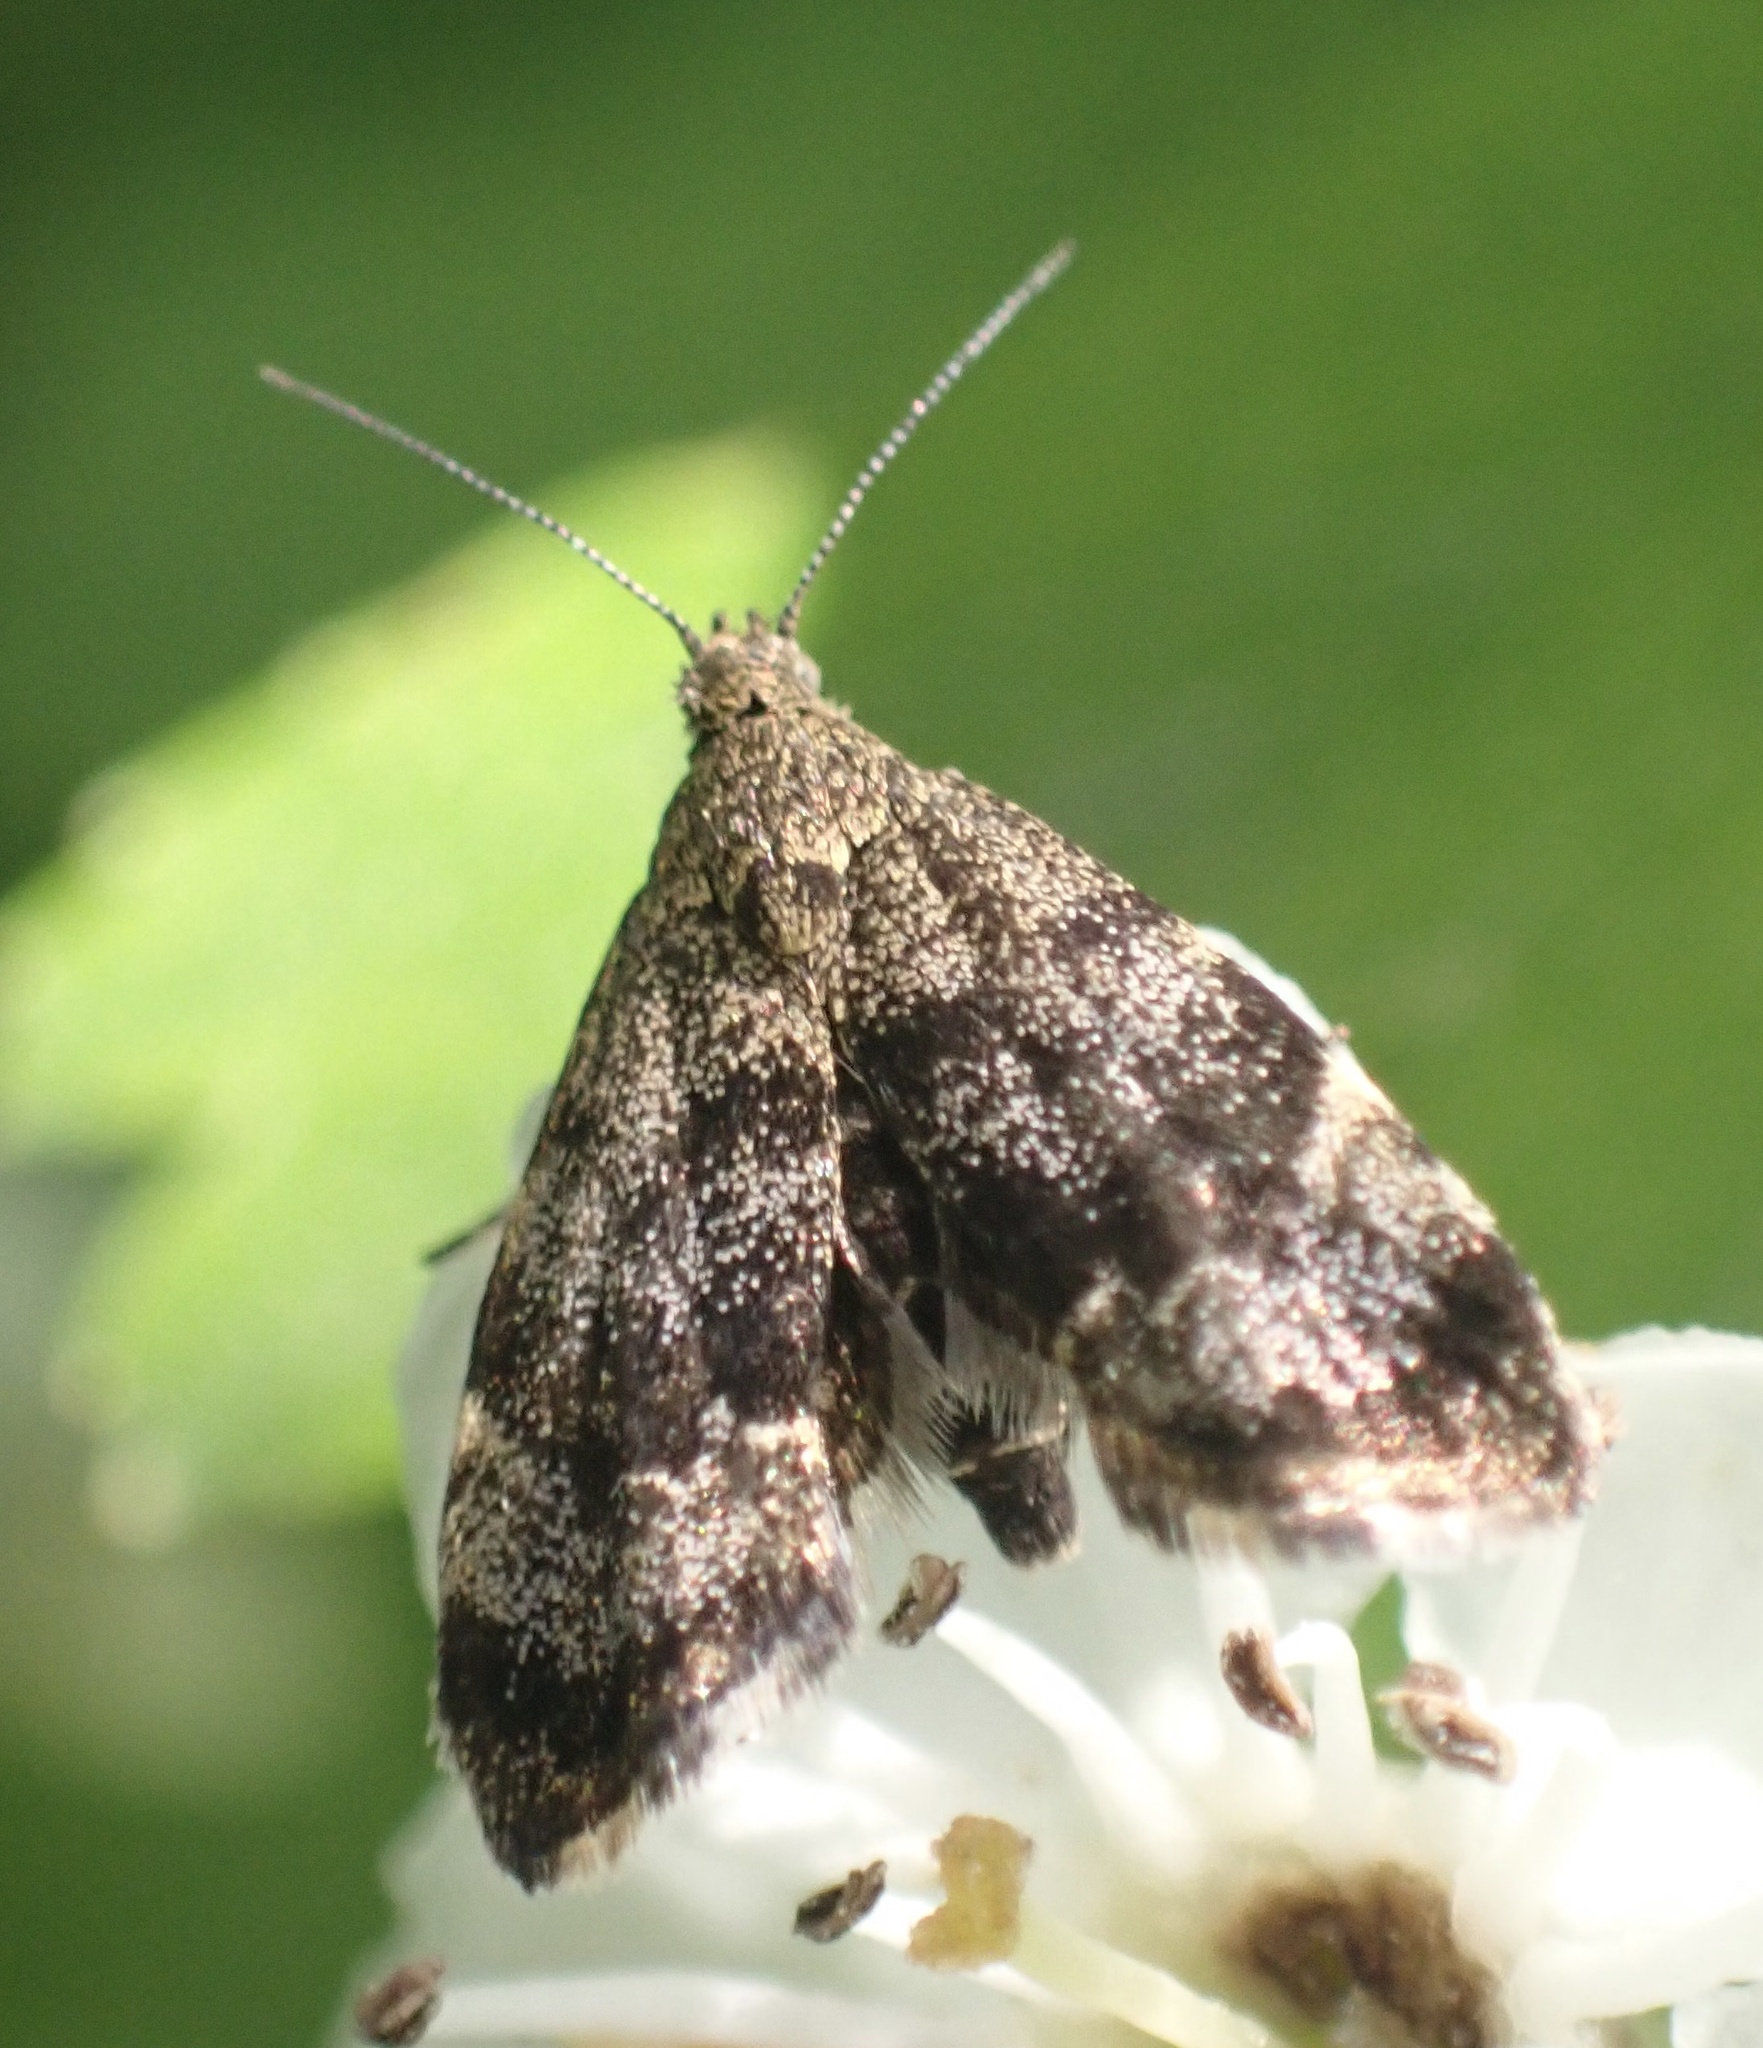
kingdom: Animalia
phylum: Arthropoda
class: Insecta
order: Lepidoptera
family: Choreutidae
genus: Anthophila
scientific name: Anthophila fabriciana
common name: Nettle-tap
